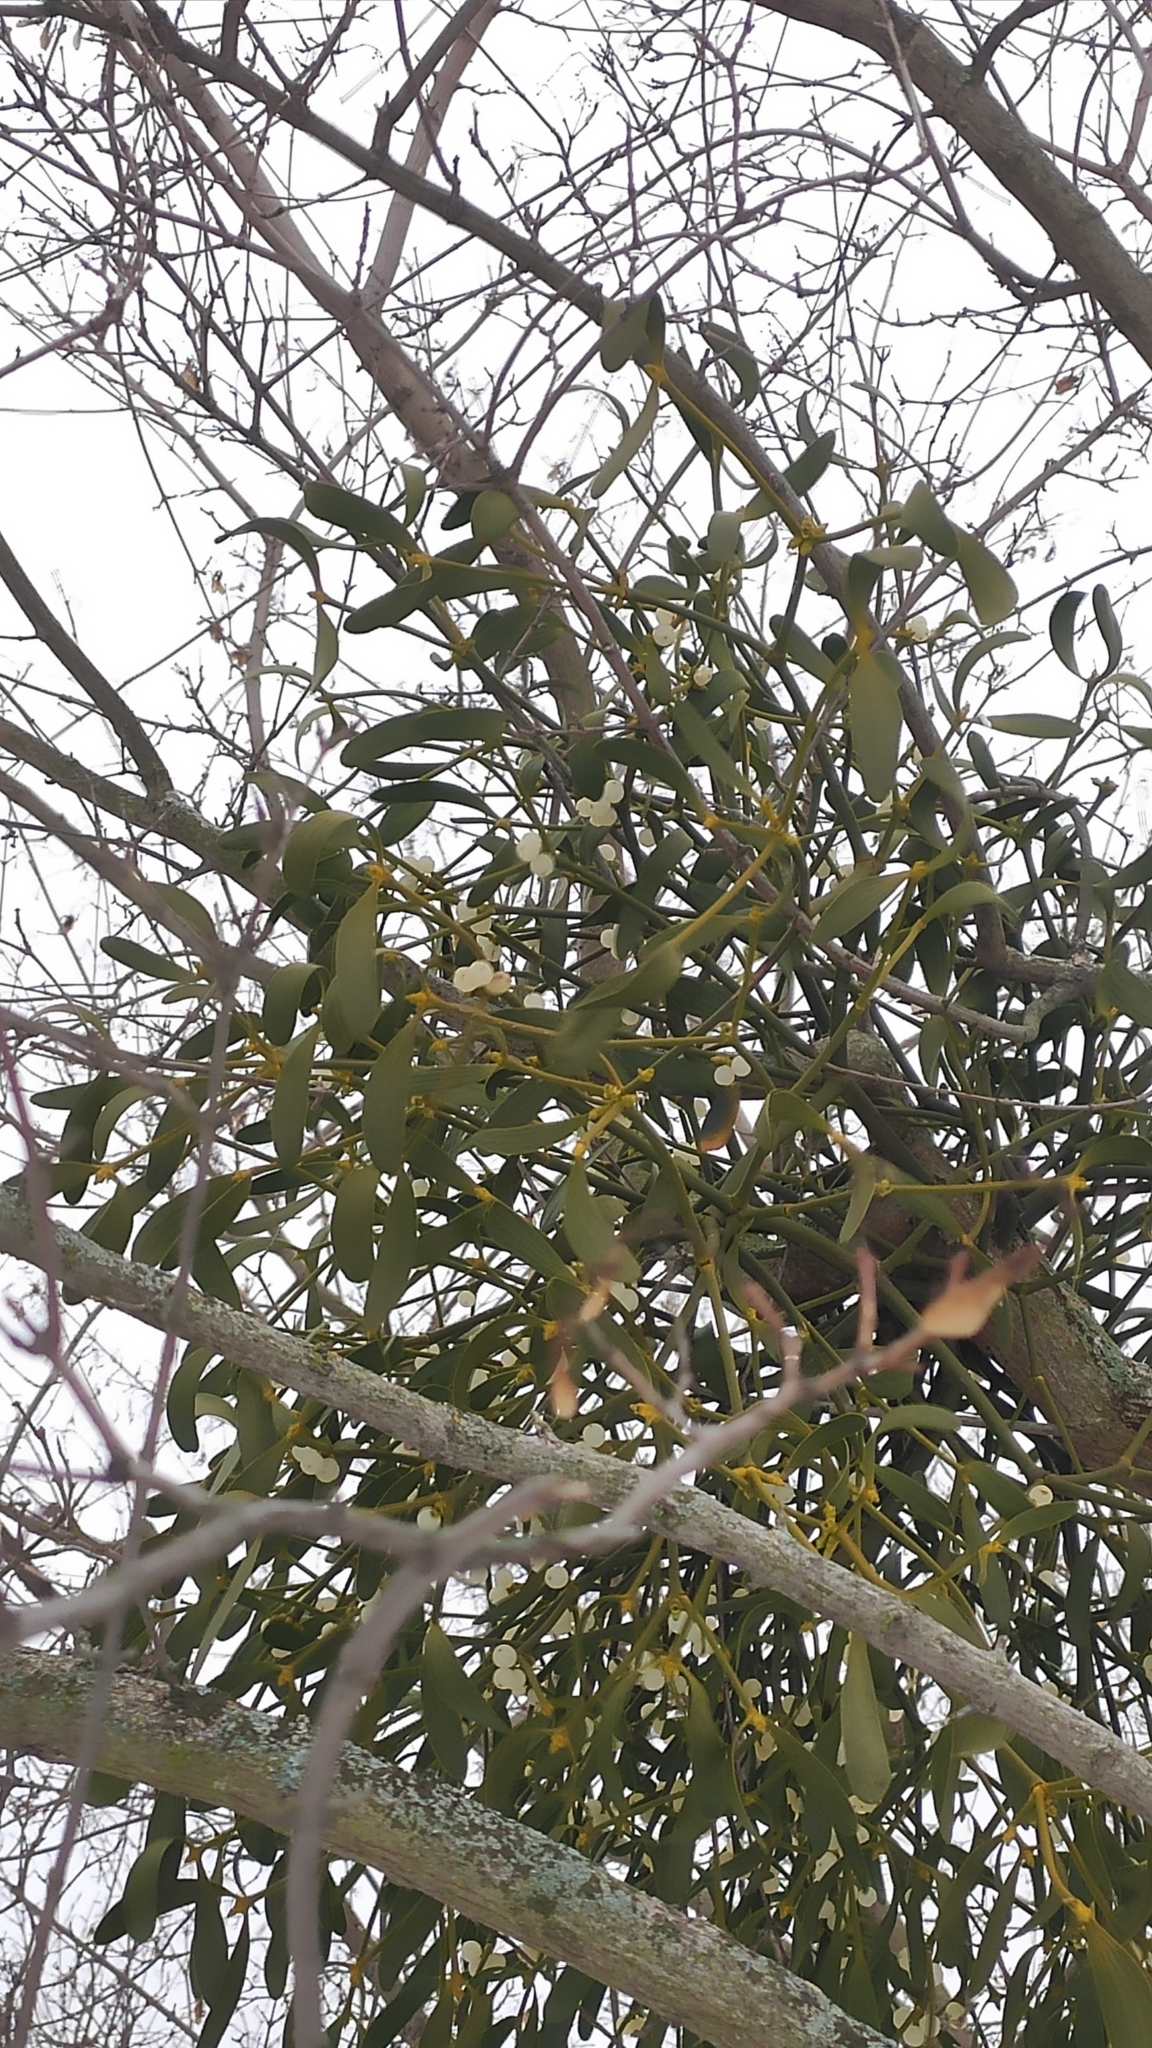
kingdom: Plantae
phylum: Tracheophyta
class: Magnoliopsida
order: Santalales
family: Viscaceae
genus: Viscum
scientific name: Viscum album
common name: Mistletoe
